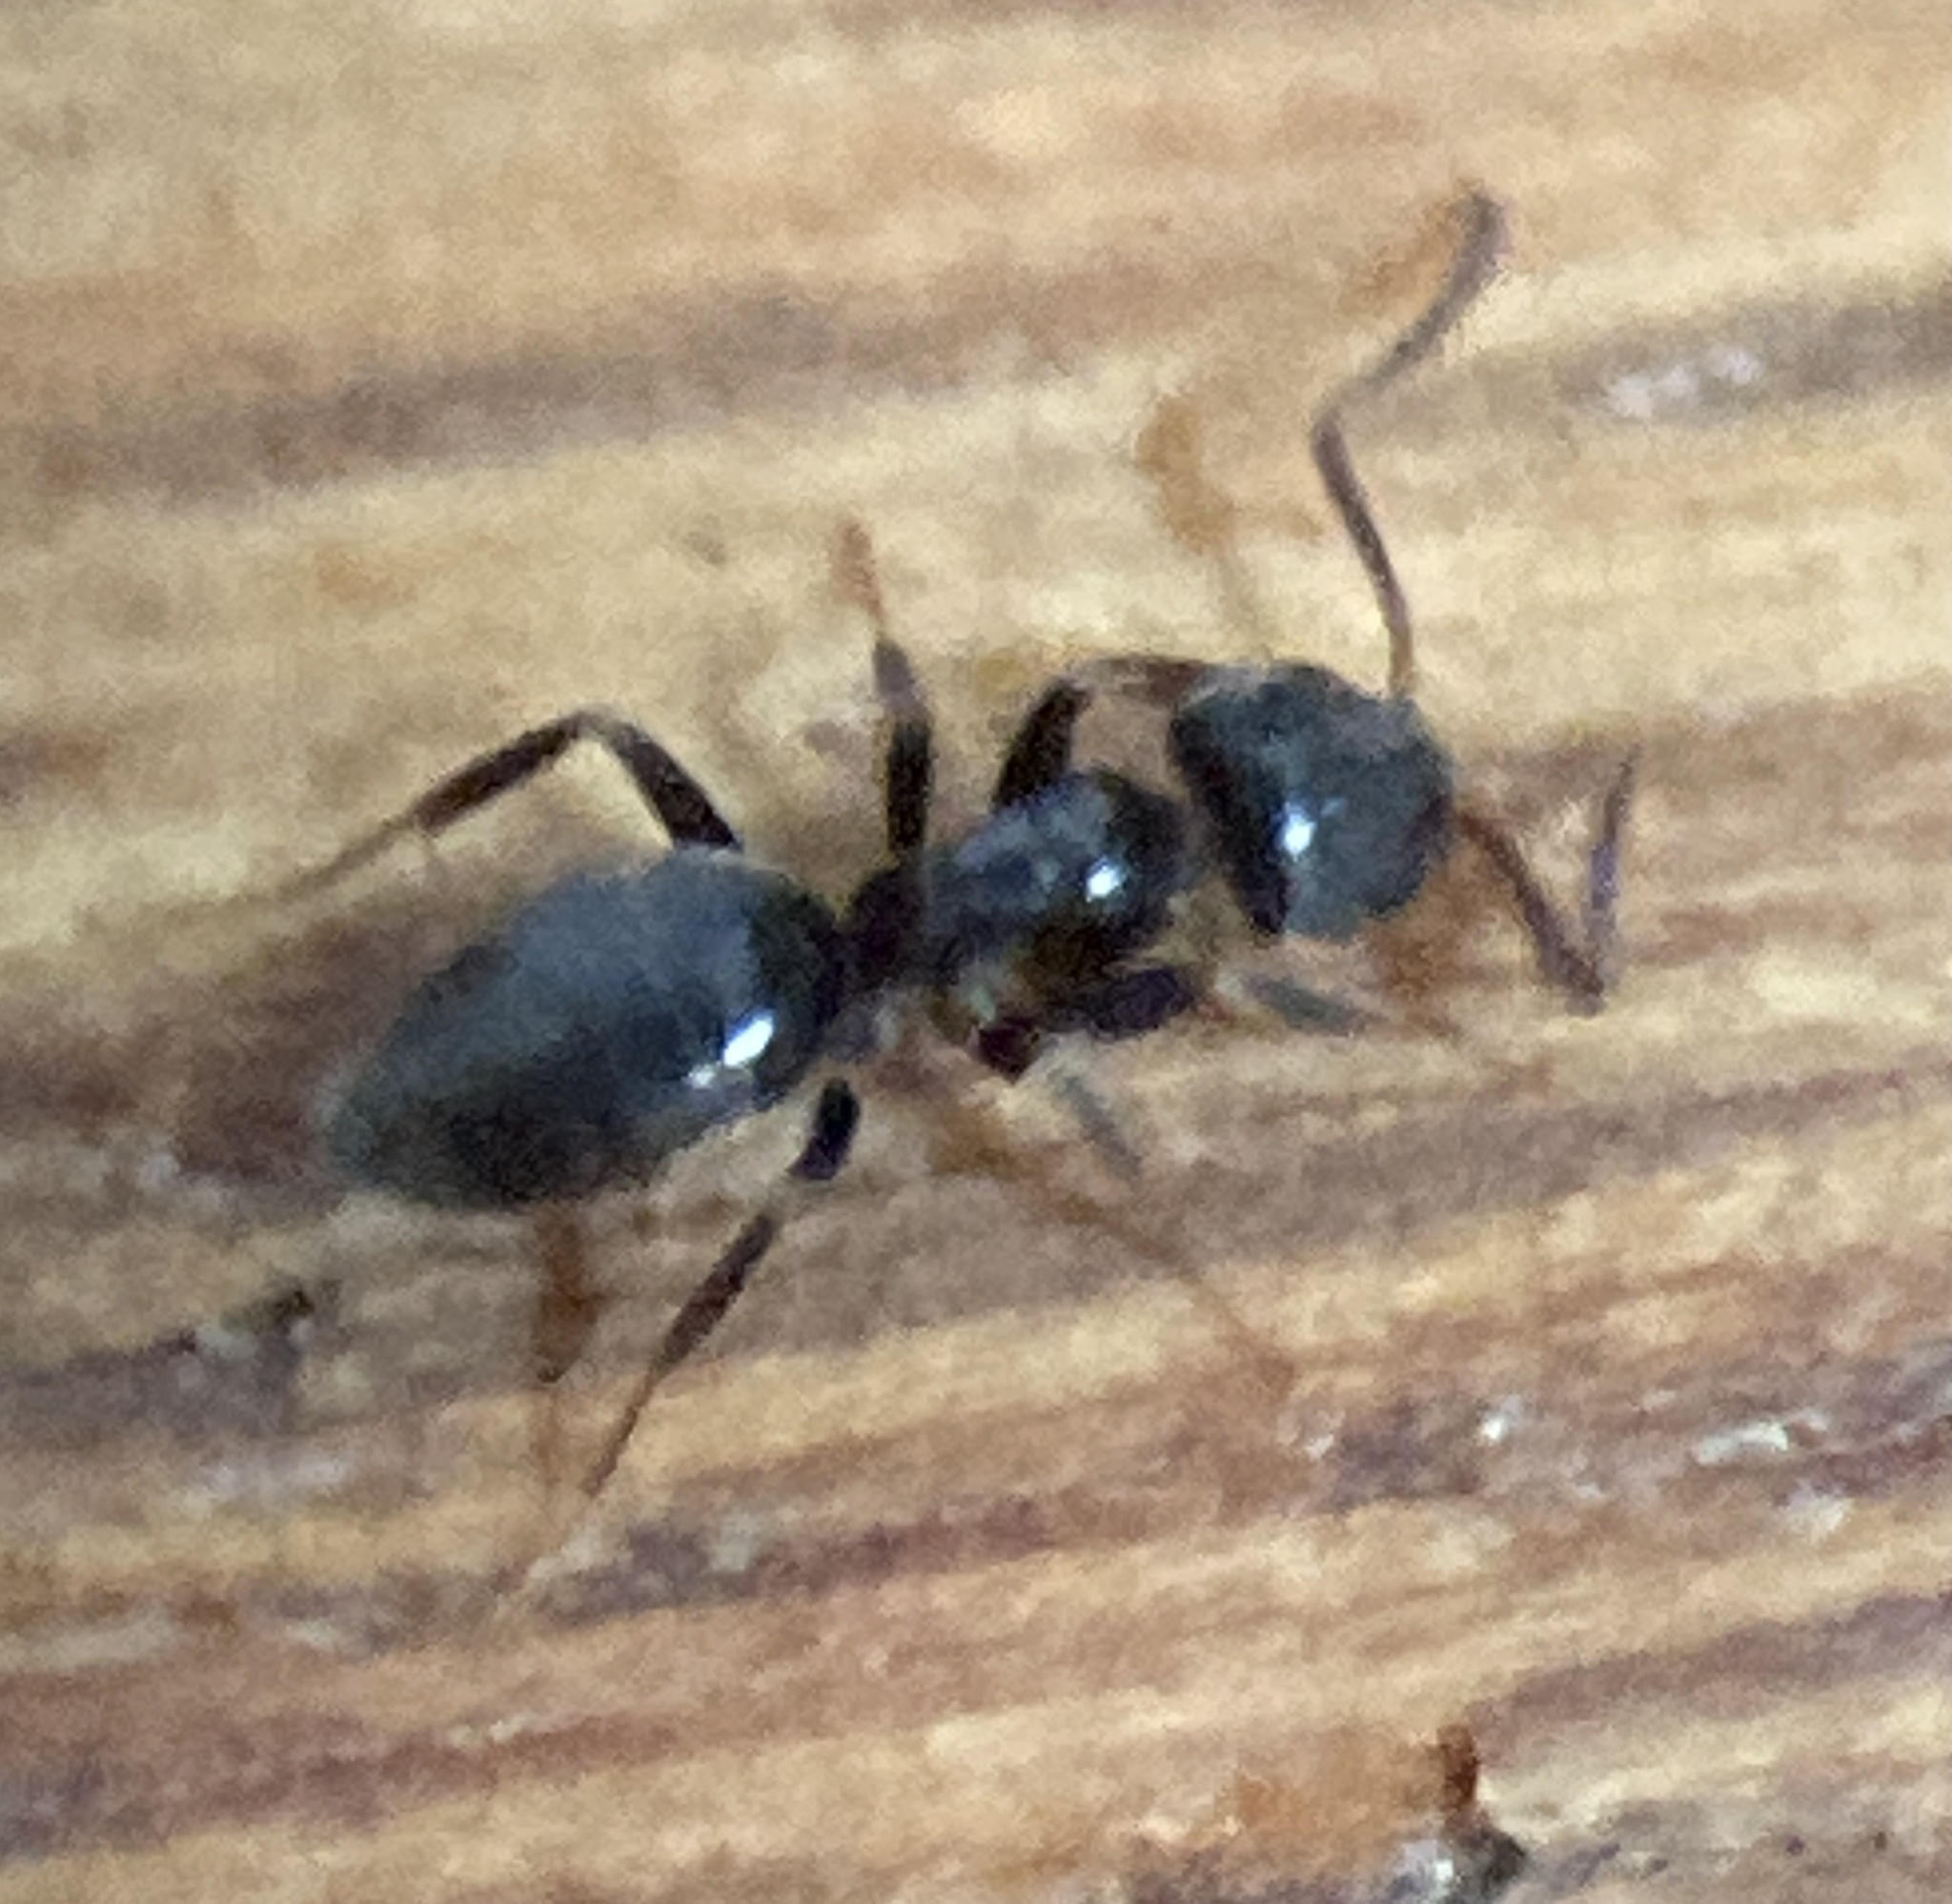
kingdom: Animalia
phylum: Arthropoda
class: Insecta
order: Hymenoptera
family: Formicidae
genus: Tapinoma
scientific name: Tapinoma sessile
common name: Odorous house ant
